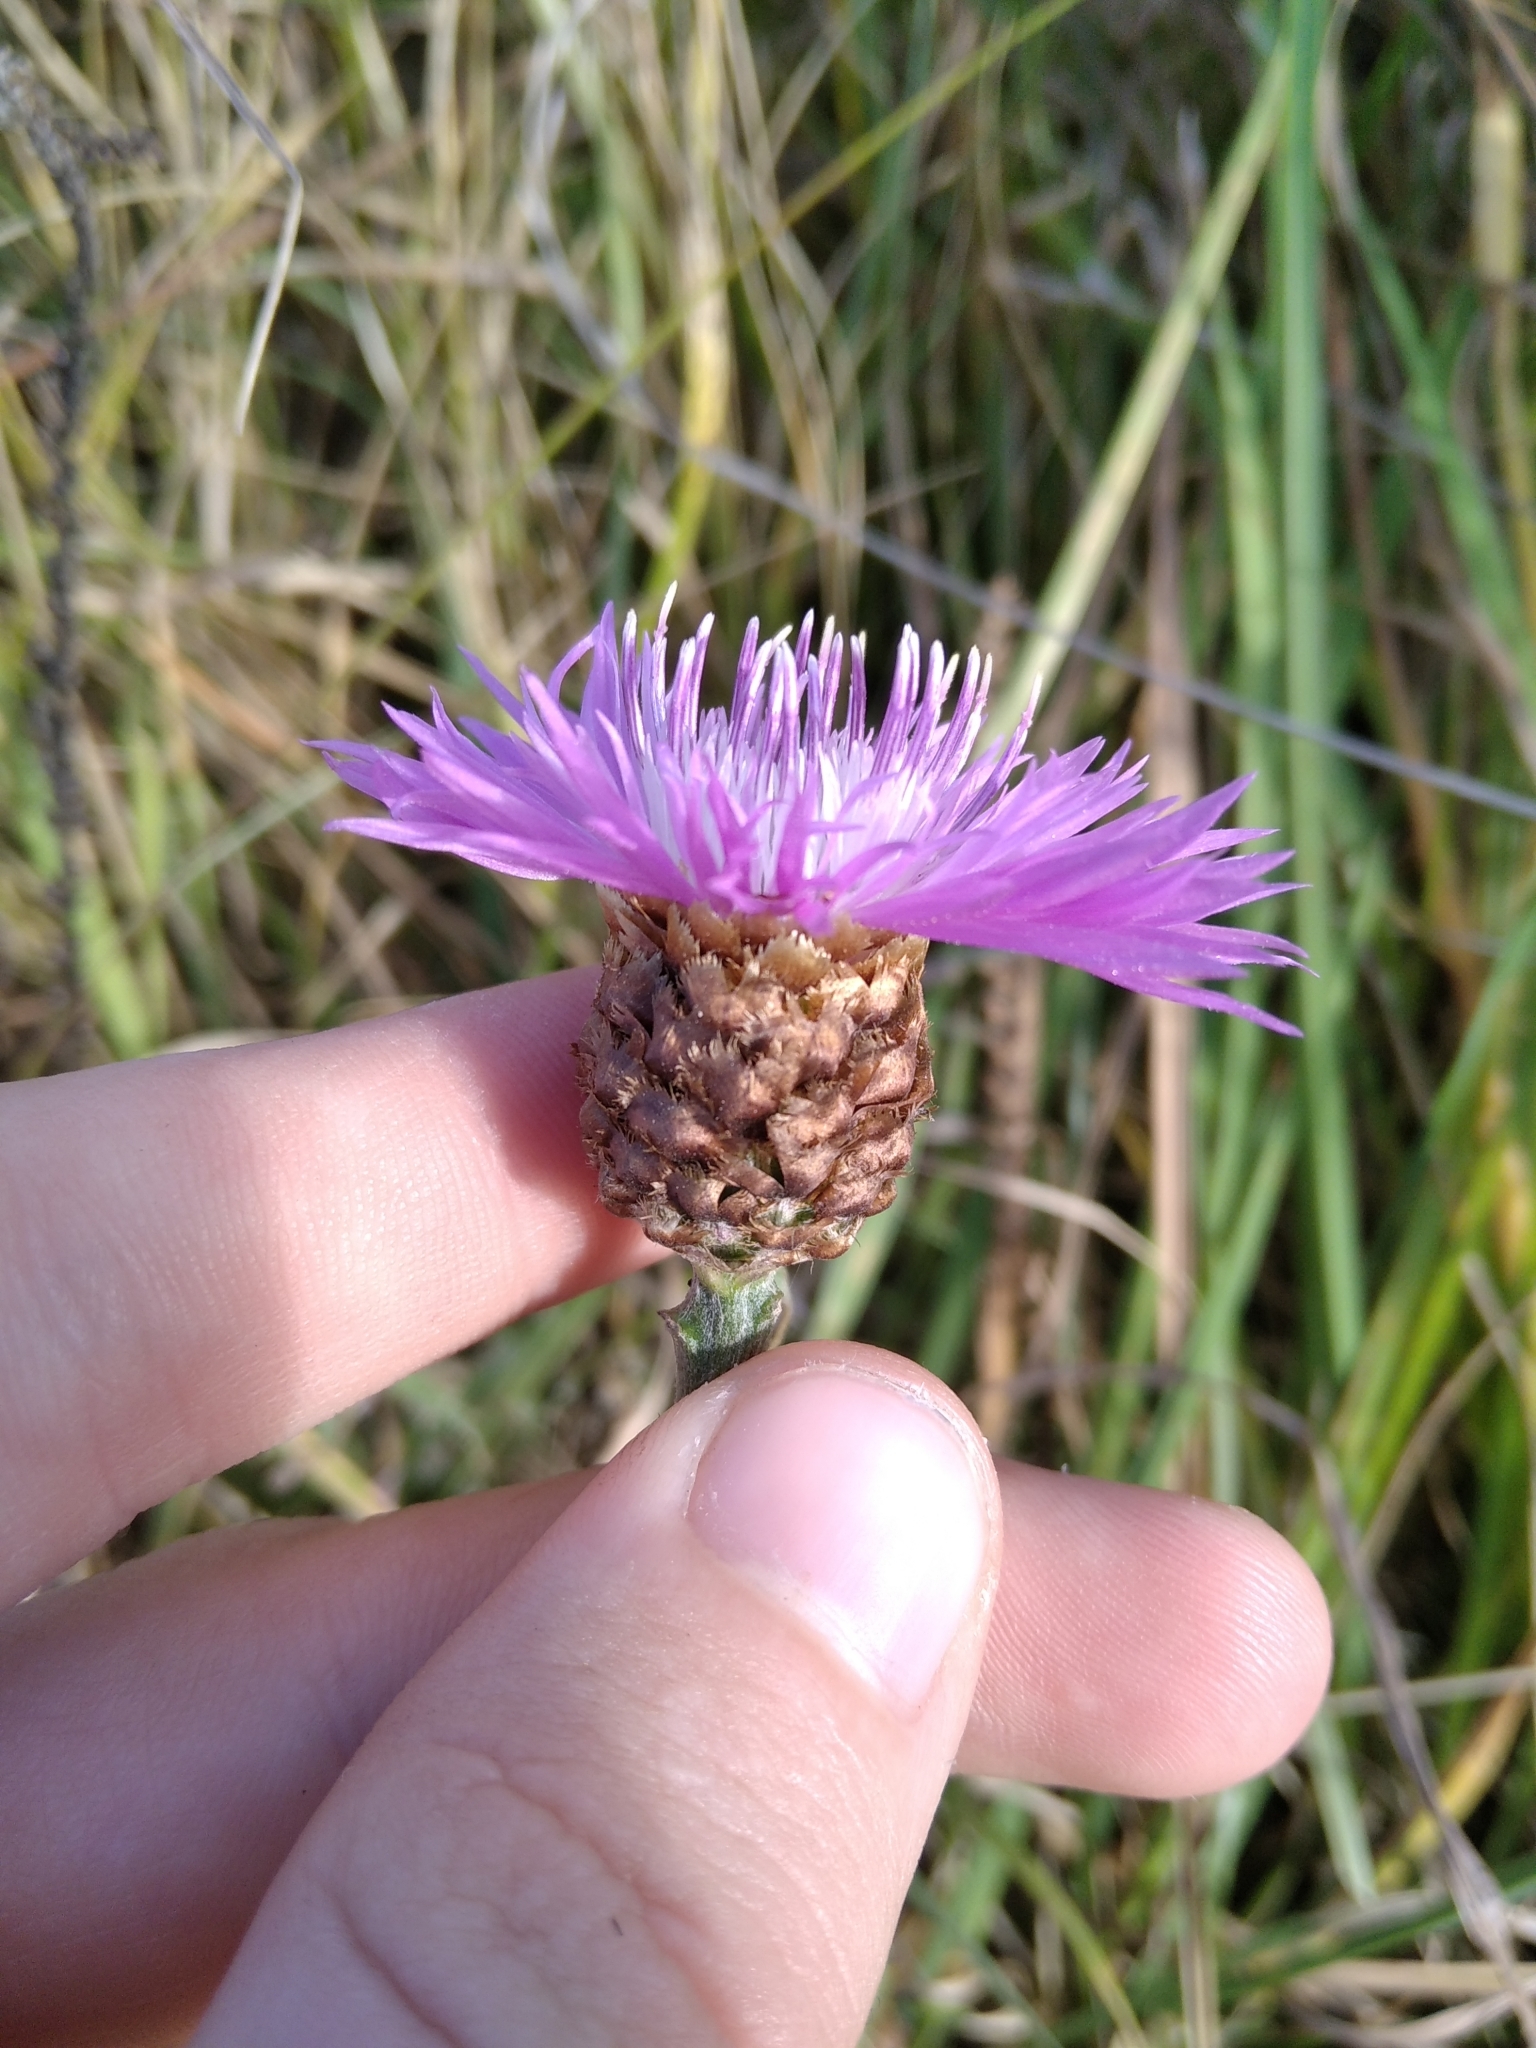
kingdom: Plantae
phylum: Tracheophyta
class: Magnoliopsida
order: Asterales
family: Asteraceae
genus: Centaurea
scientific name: Centaurea jacea
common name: Brown knapweed
